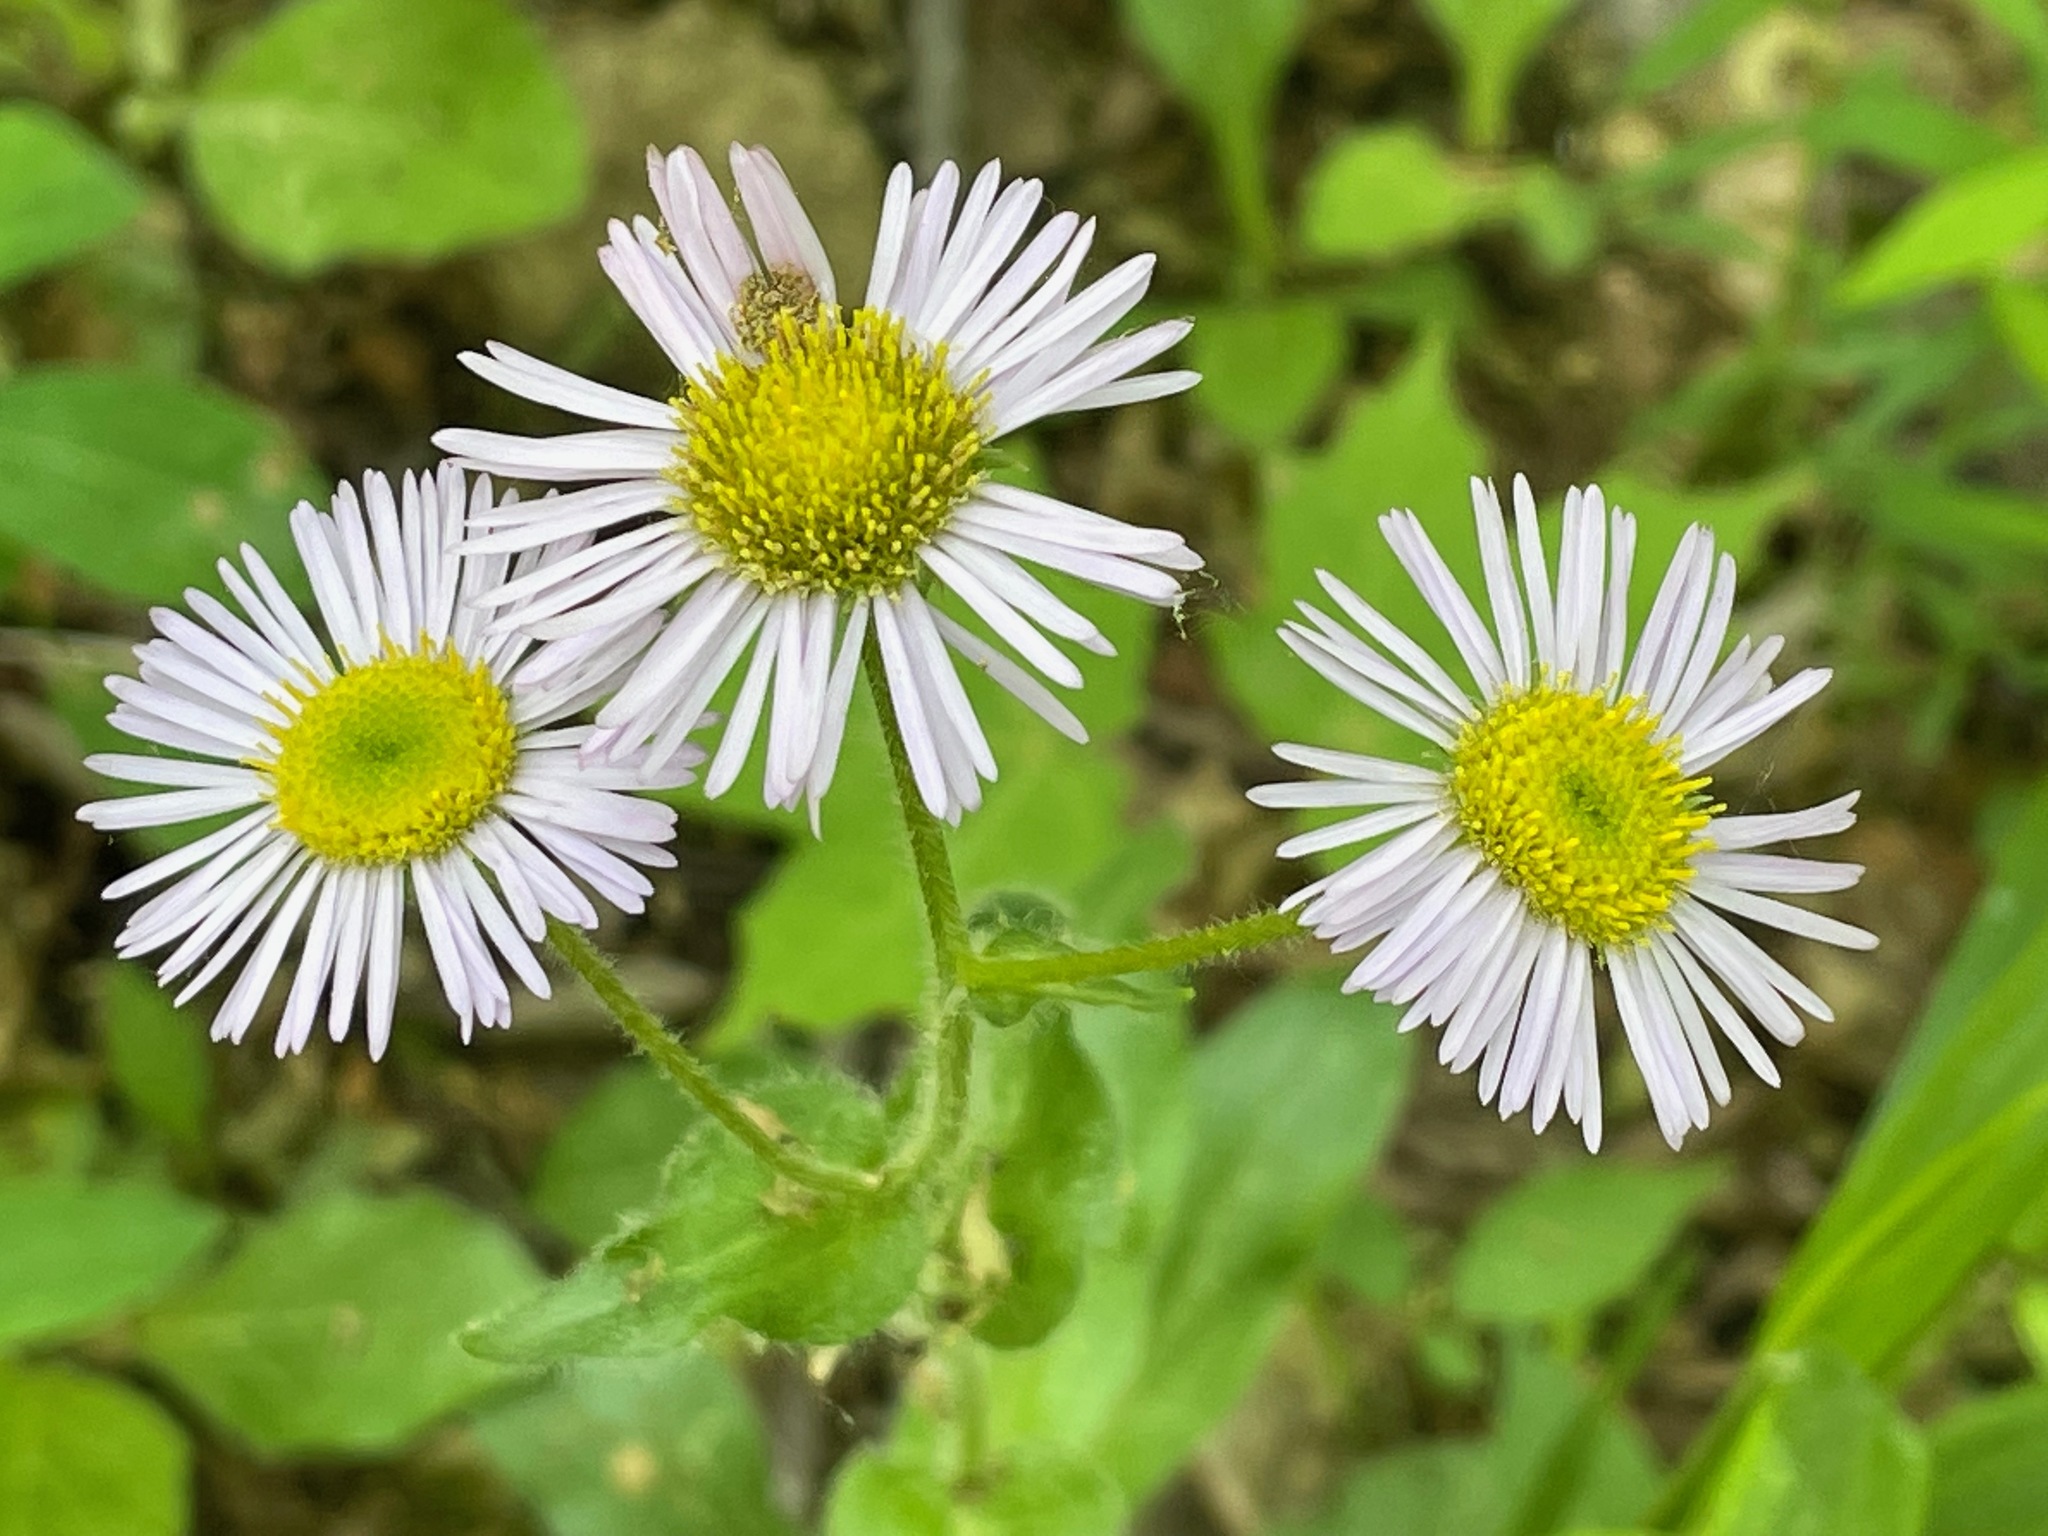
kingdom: Plantae
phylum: Tracheophyta
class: Magnoliopsida
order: Asterales
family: Asteraceae
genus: Erigeron
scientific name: Erigeron pulchellus
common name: Hairy fleabane
